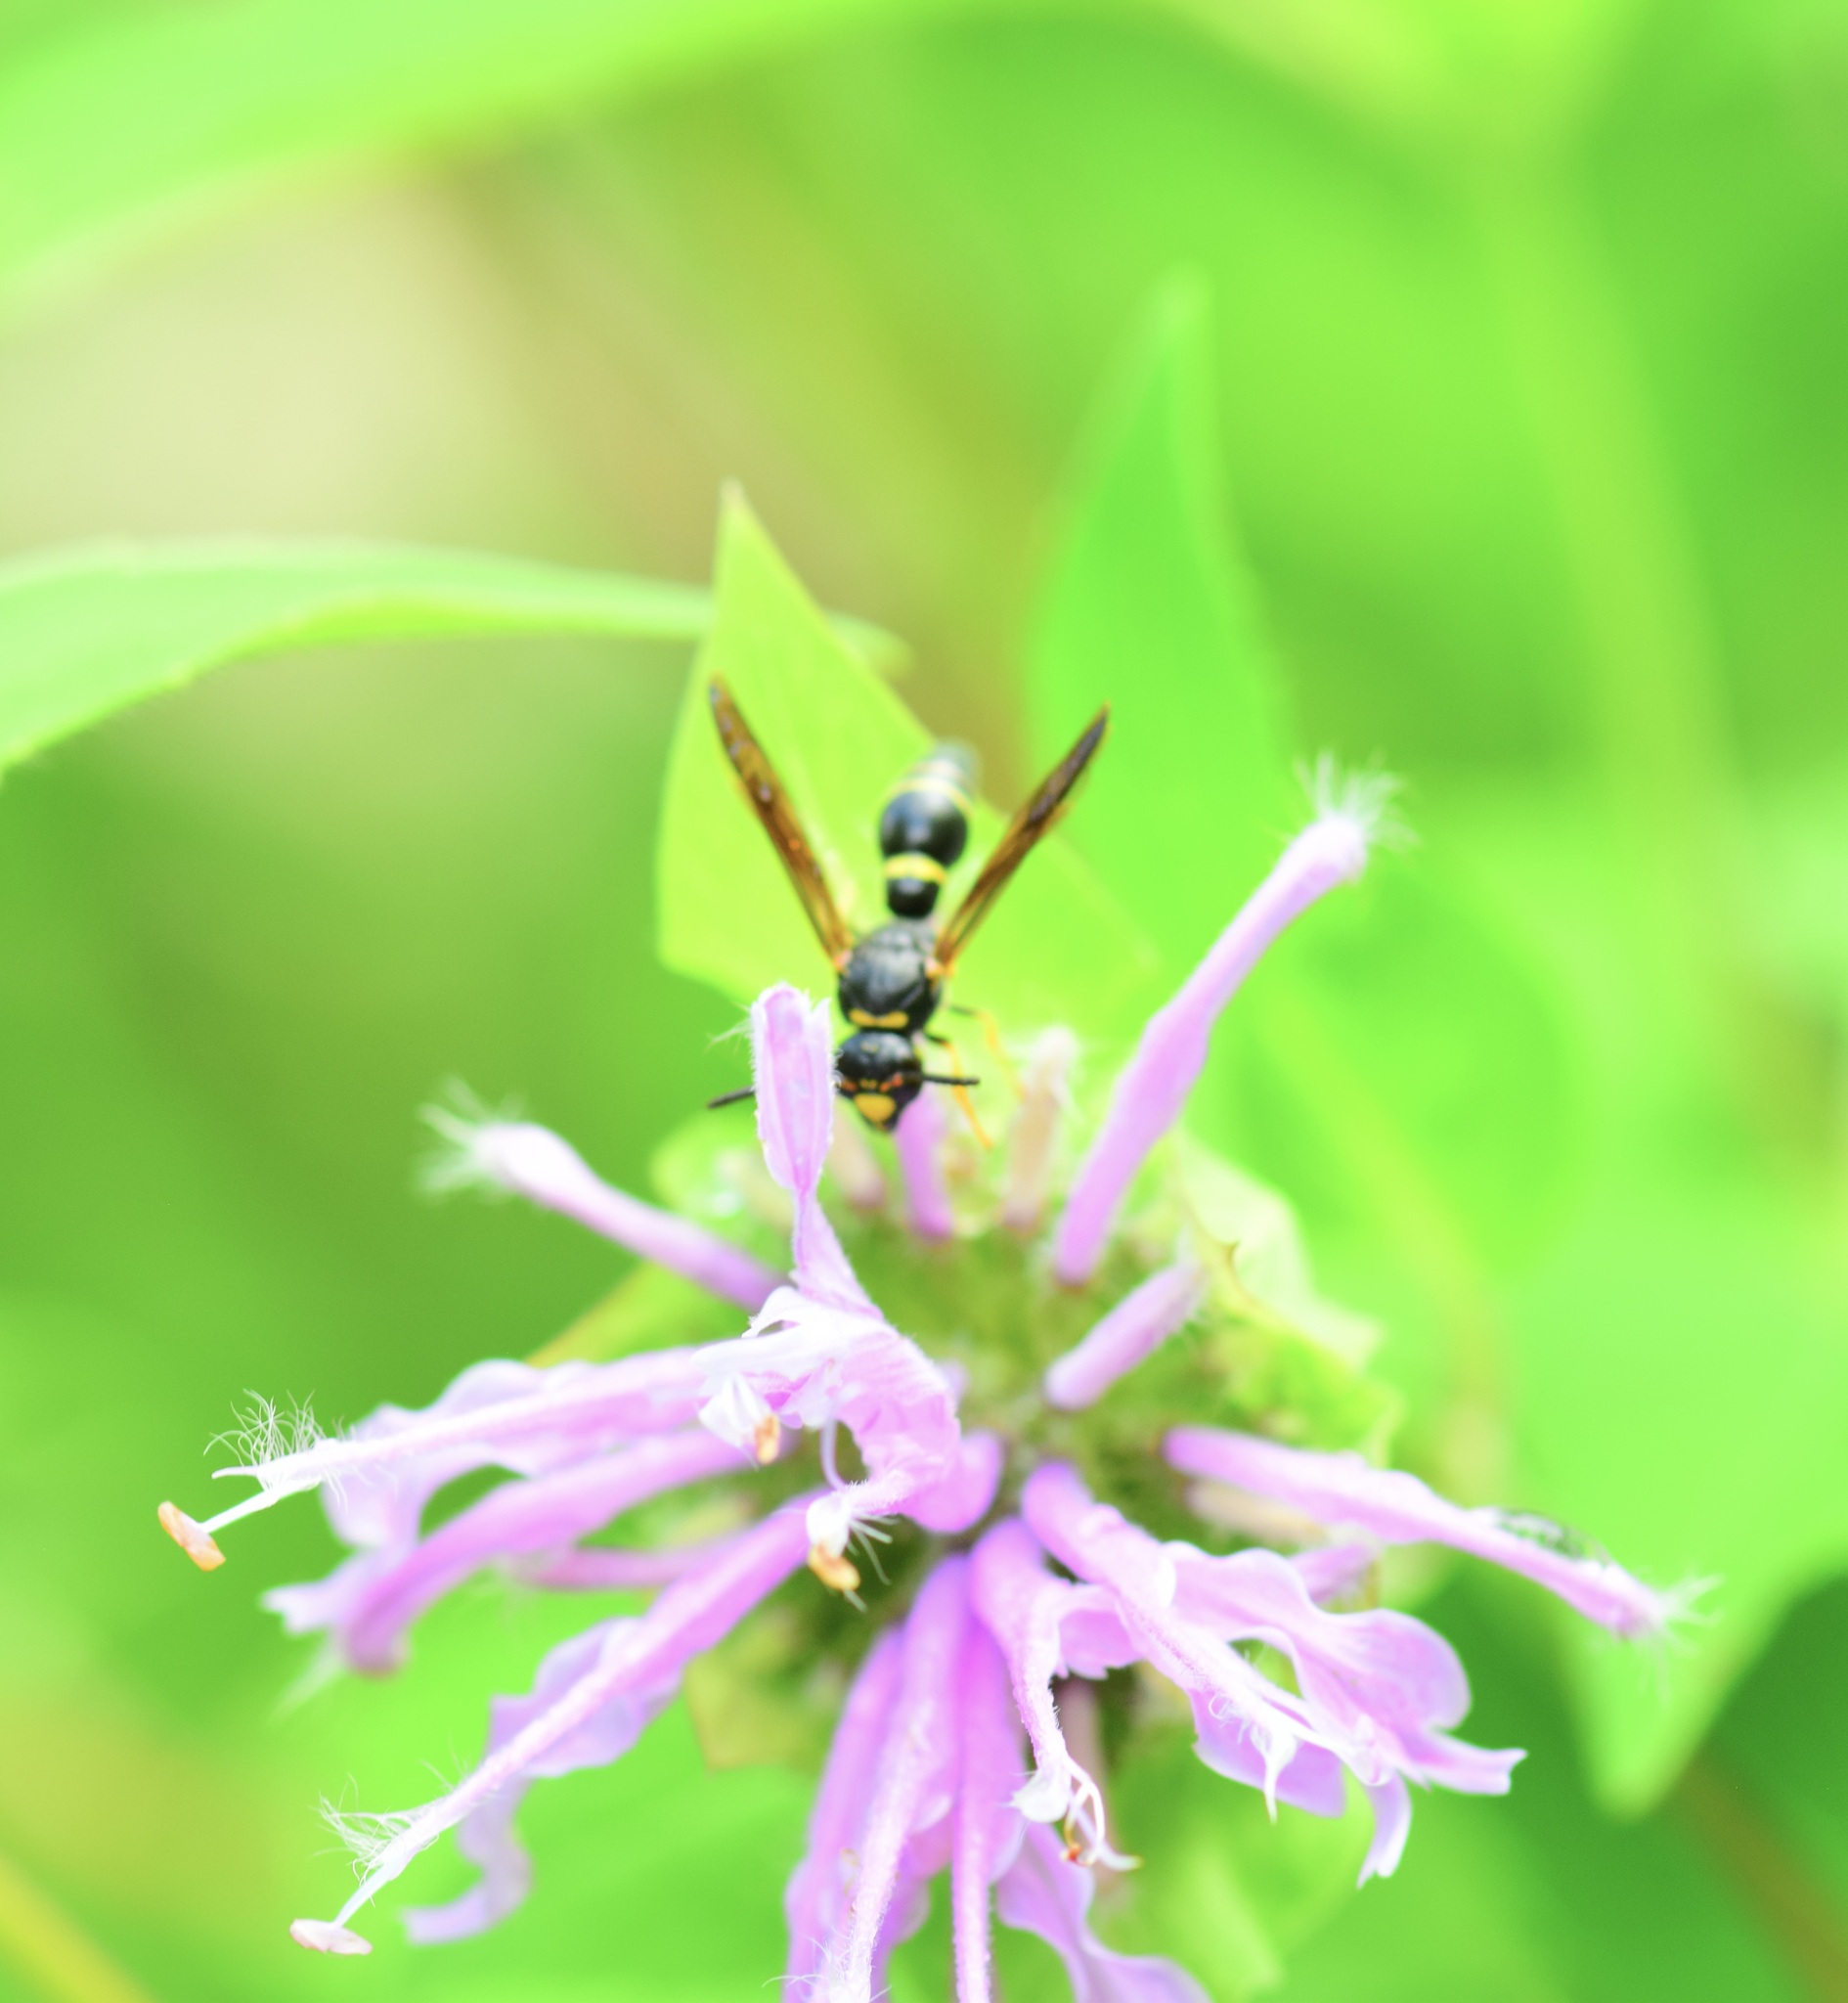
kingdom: Animalia
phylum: Arthropoda
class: Insecta
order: Hymenoptera
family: Eumenidae
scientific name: Eumenidae
